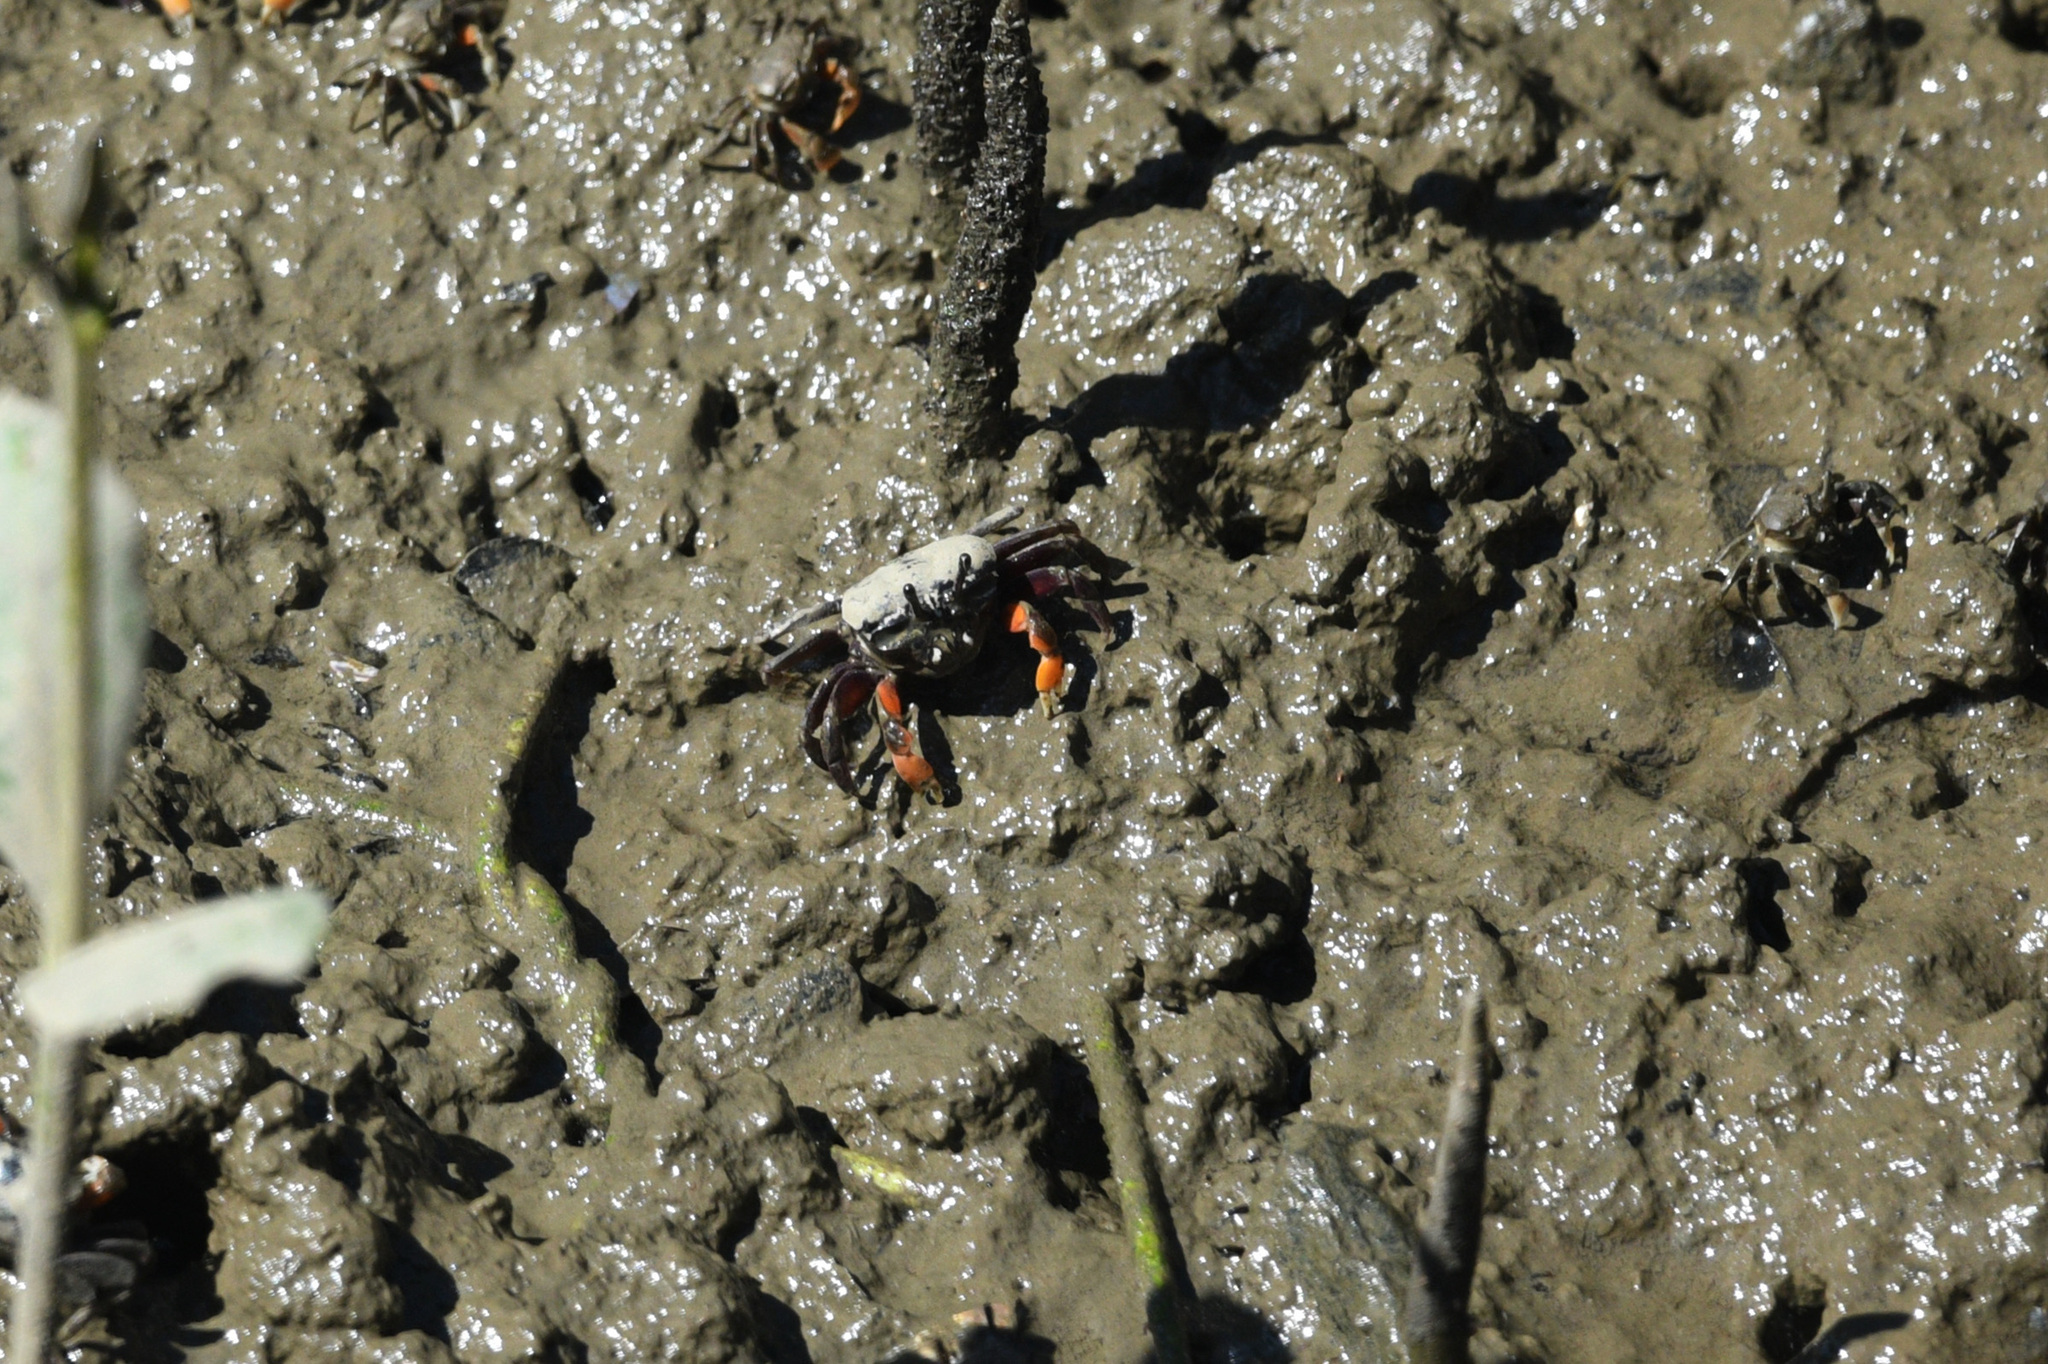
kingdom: Animalia
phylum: Arthropoda
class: Malacostraca
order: Decapoda
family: Heloeciidae
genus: Heloecius
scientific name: Heloecius cordiformis
